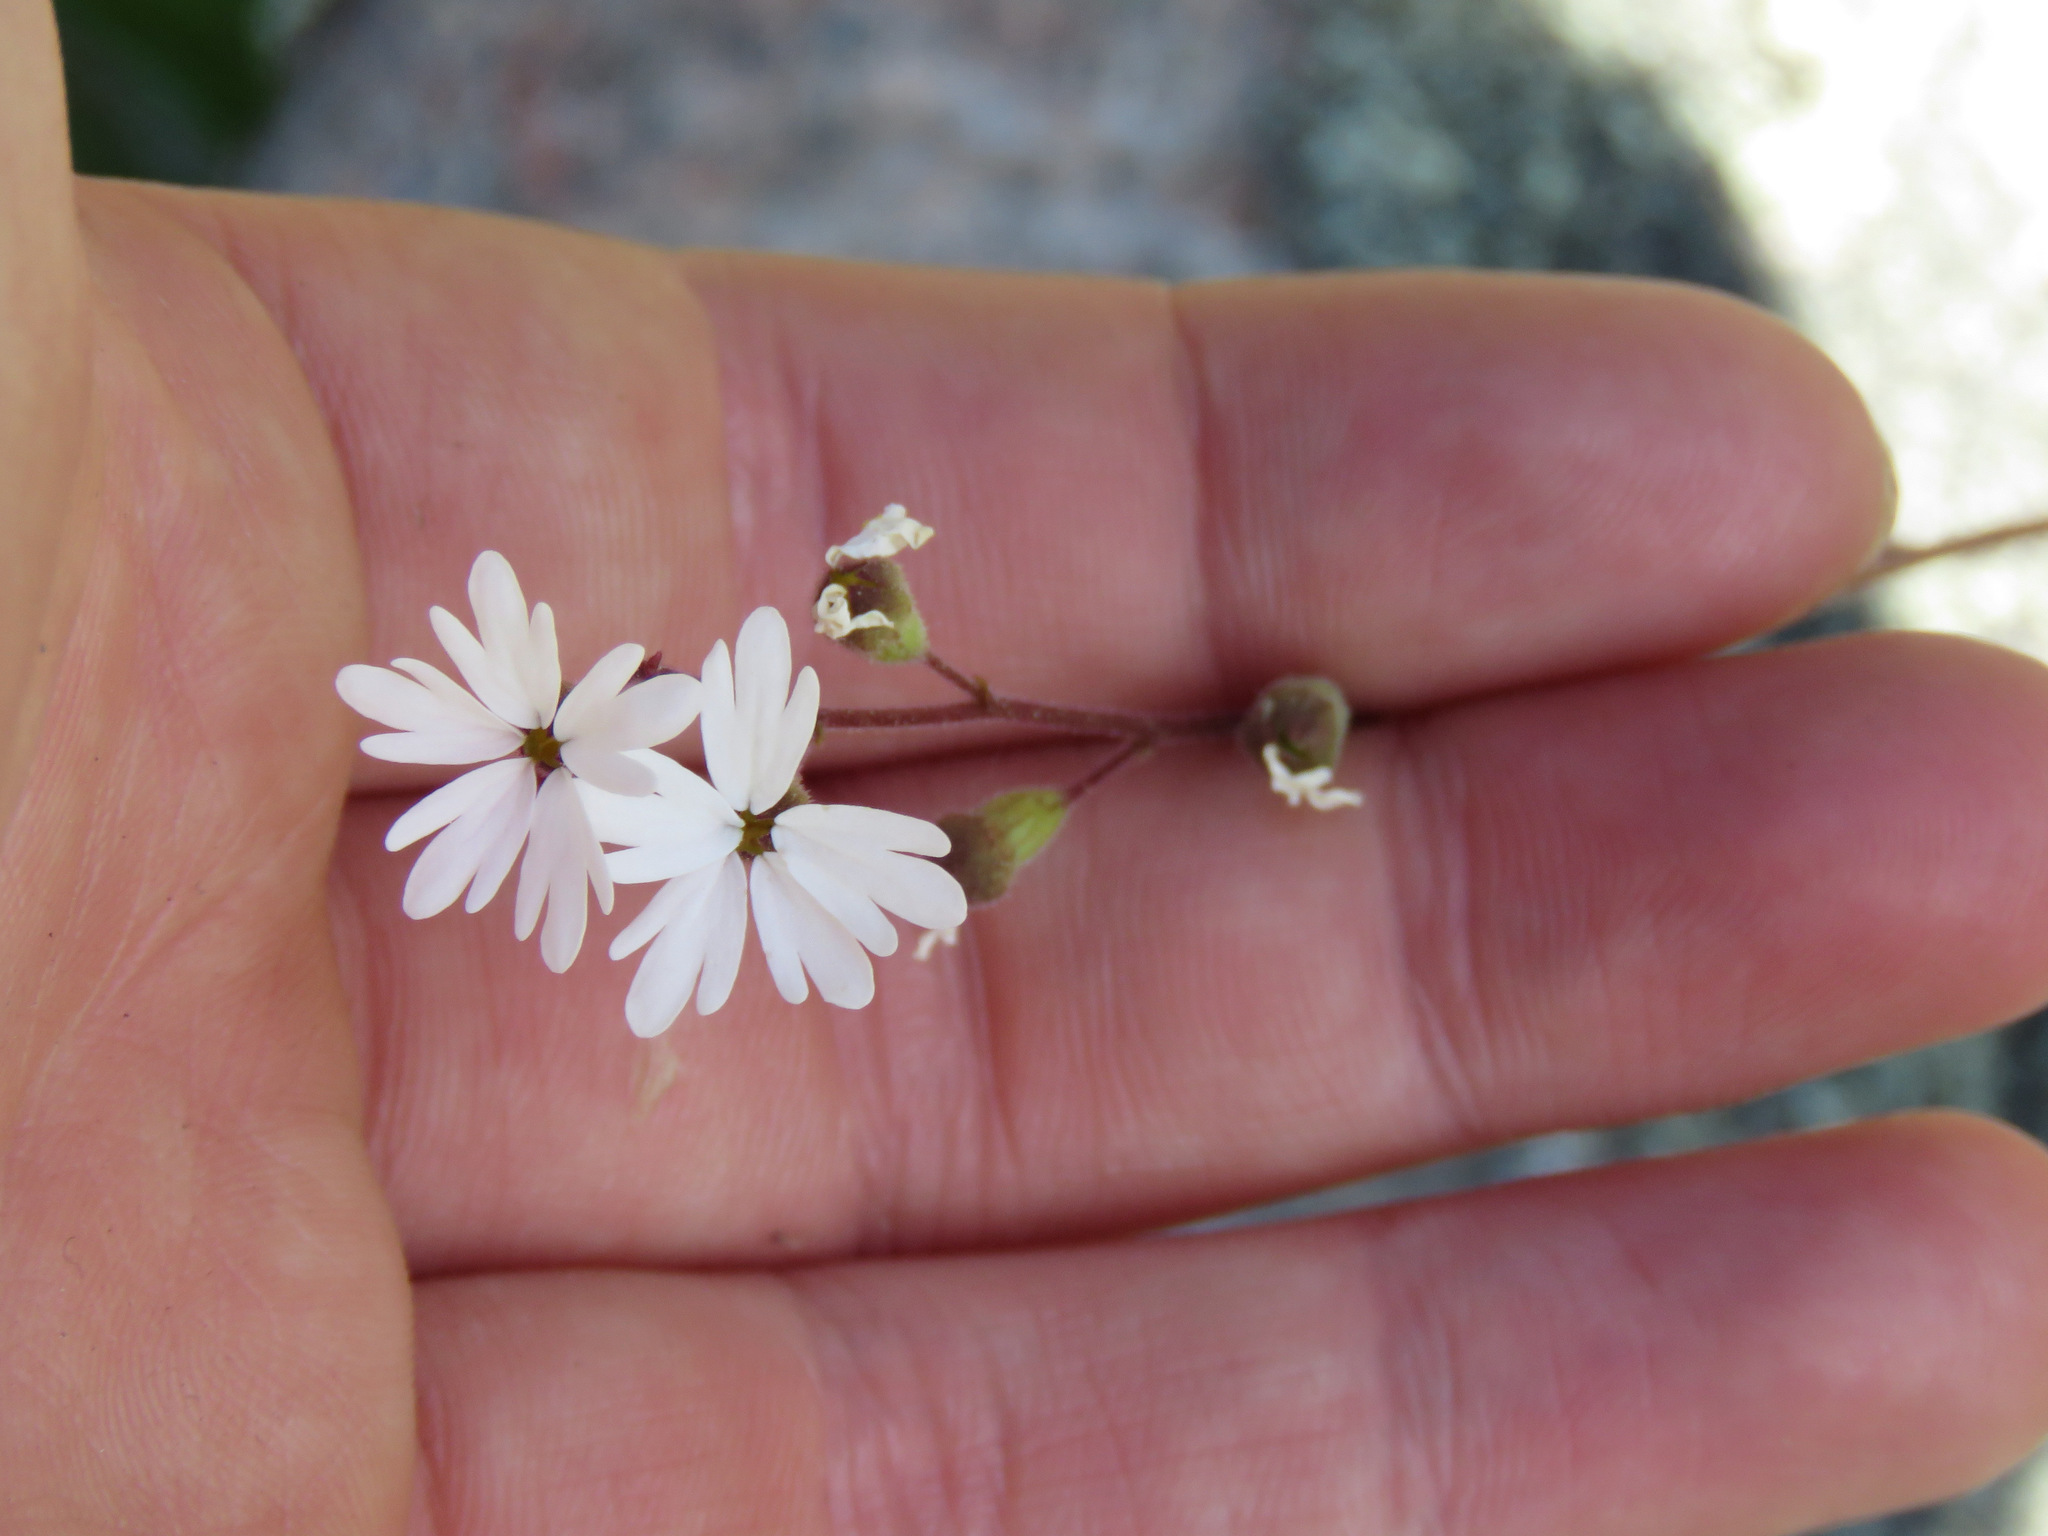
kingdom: Plantae
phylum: Tracheophyta
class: Magnoliopsida
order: Saxifragales
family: Saxifragaceae
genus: Lithophragma
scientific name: Lithophragma parviflorum
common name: Small-flowered fringe-cup
